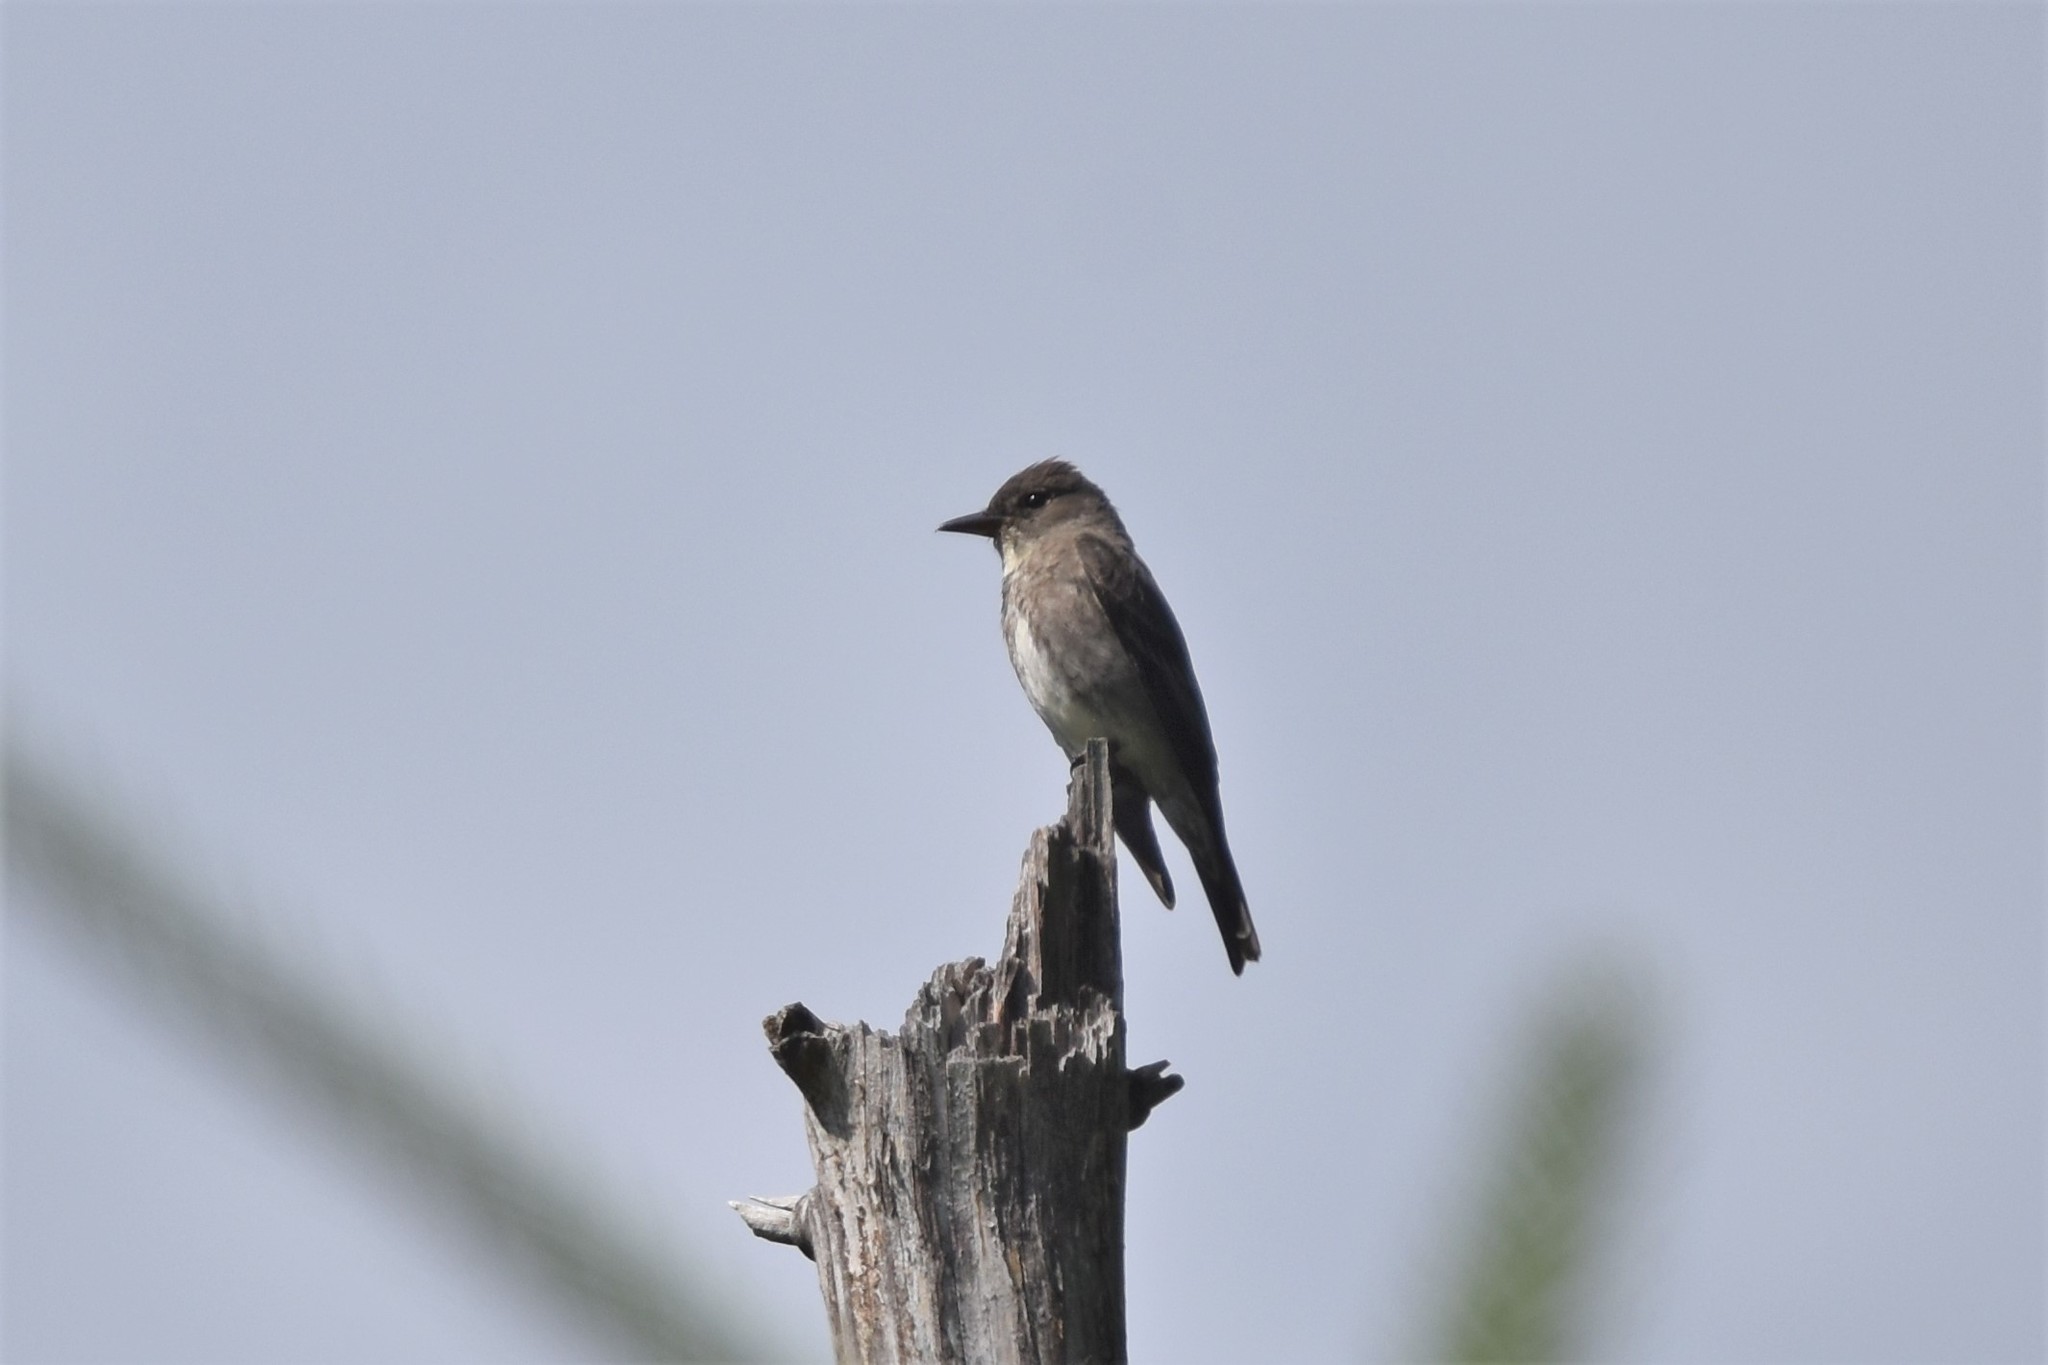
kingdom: Animalia
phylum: Chordata
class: Aves
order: Passeriformes
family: Tyrannidae
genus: Contopus
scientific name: Contopus cooperi
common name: Olive-sided flycatcher
